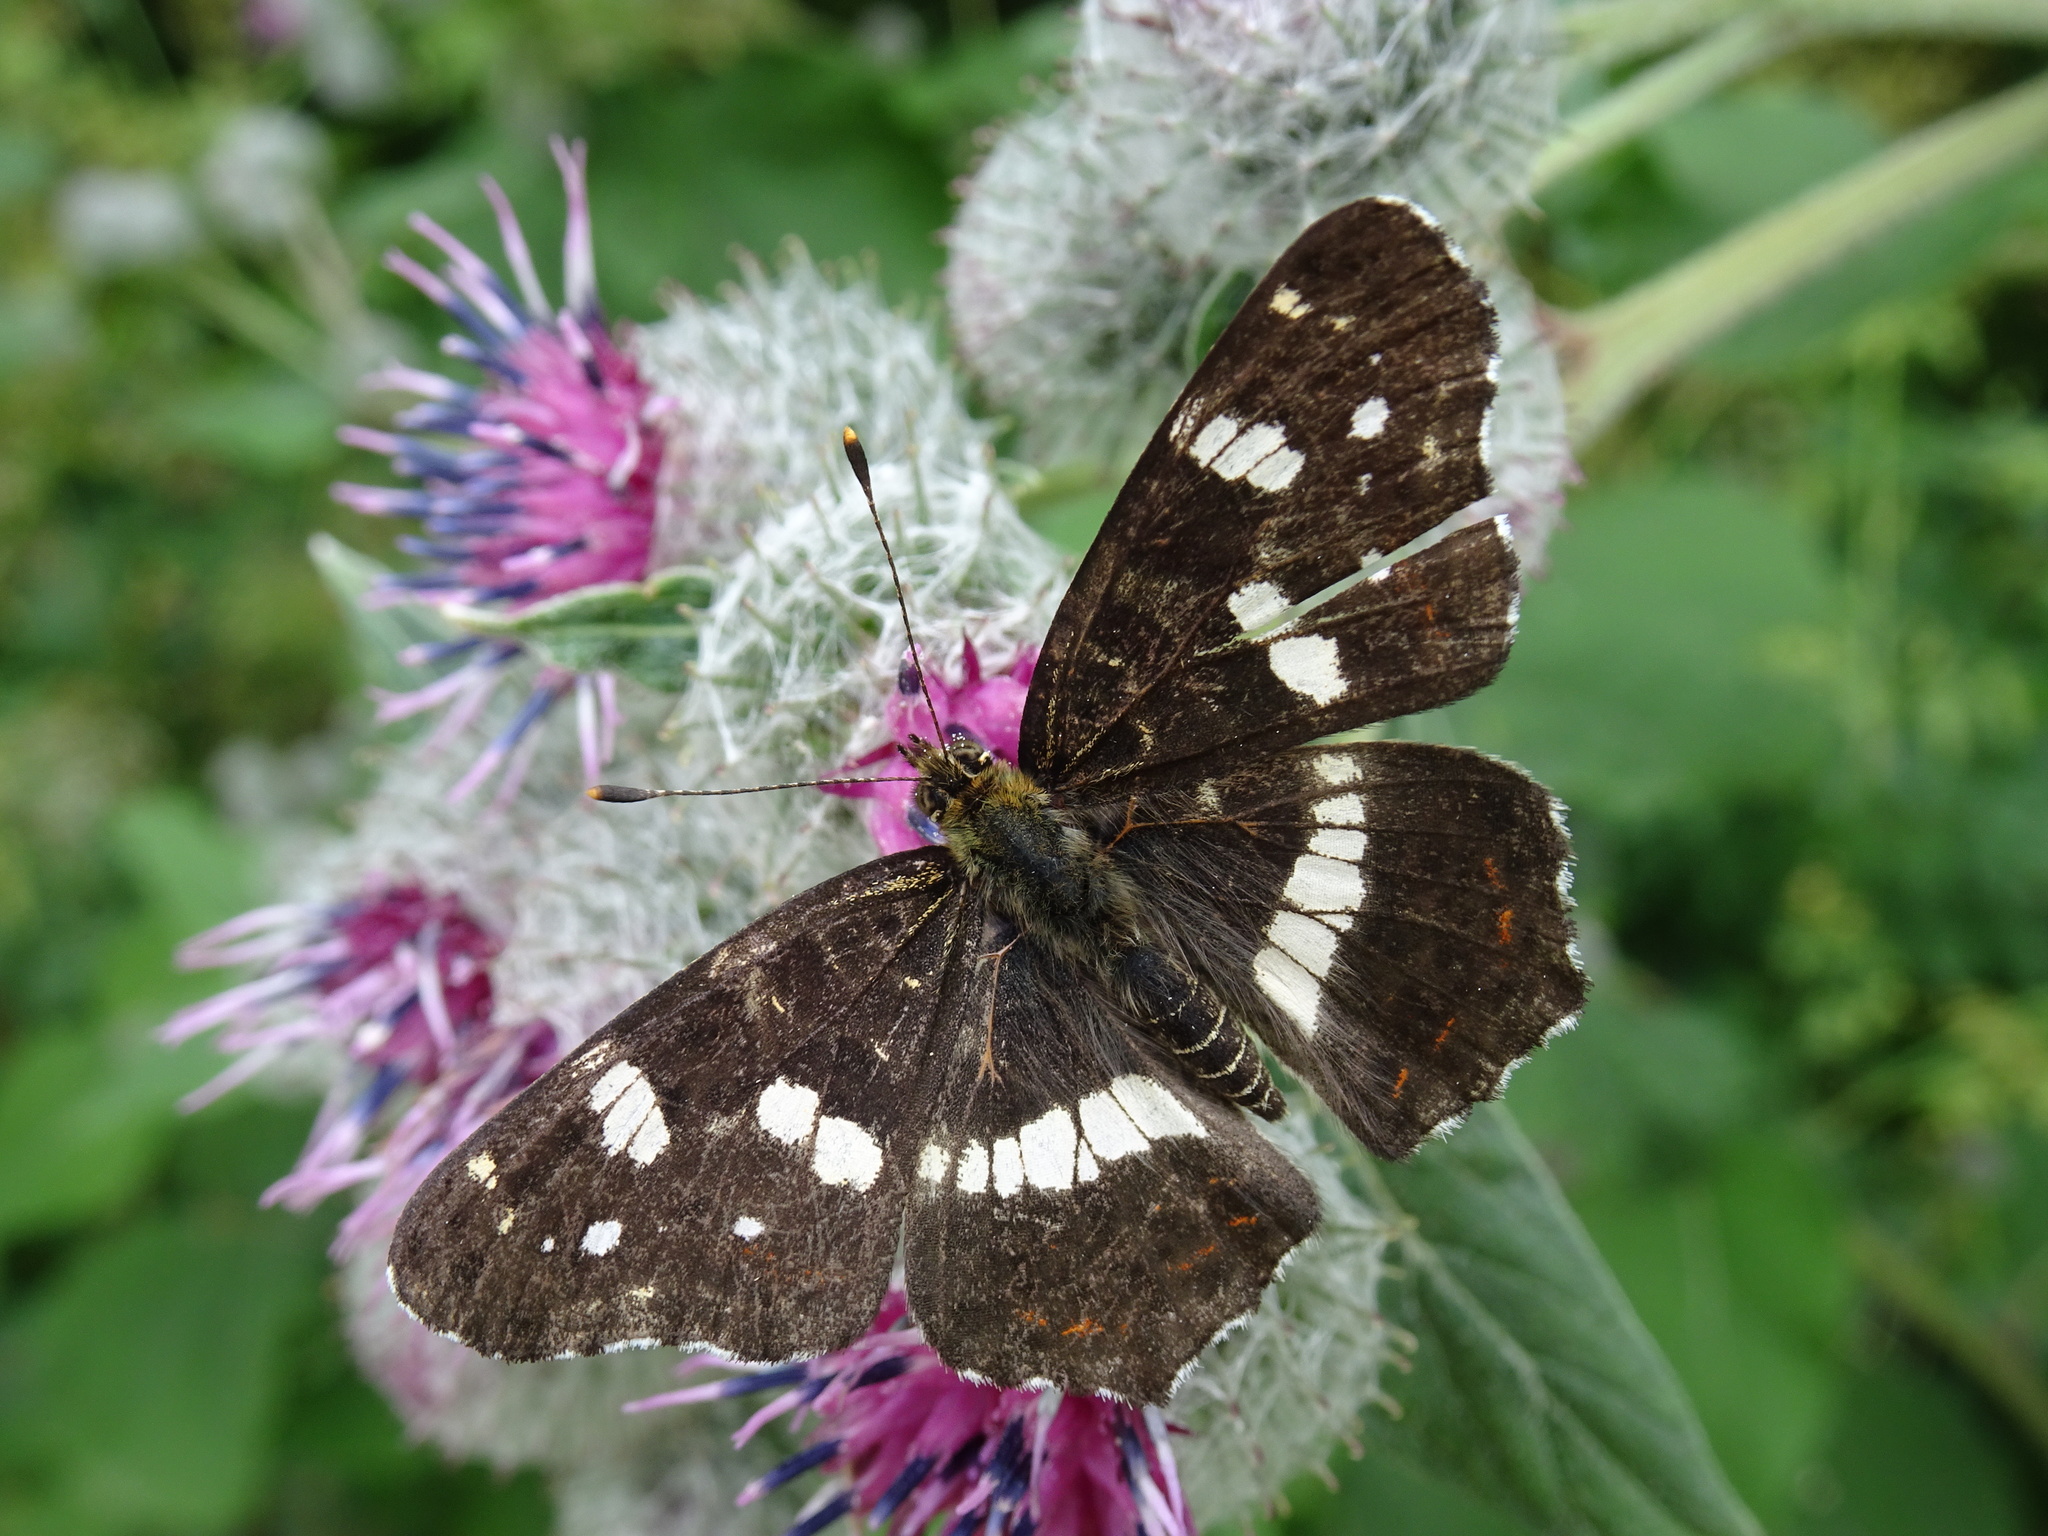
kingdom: Animalia
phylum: Arthropoda
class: Insecta
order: Lepidoptera
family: Nymphalidae
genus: Araschnia
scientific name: Araschnia levana
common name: Map butterfly
